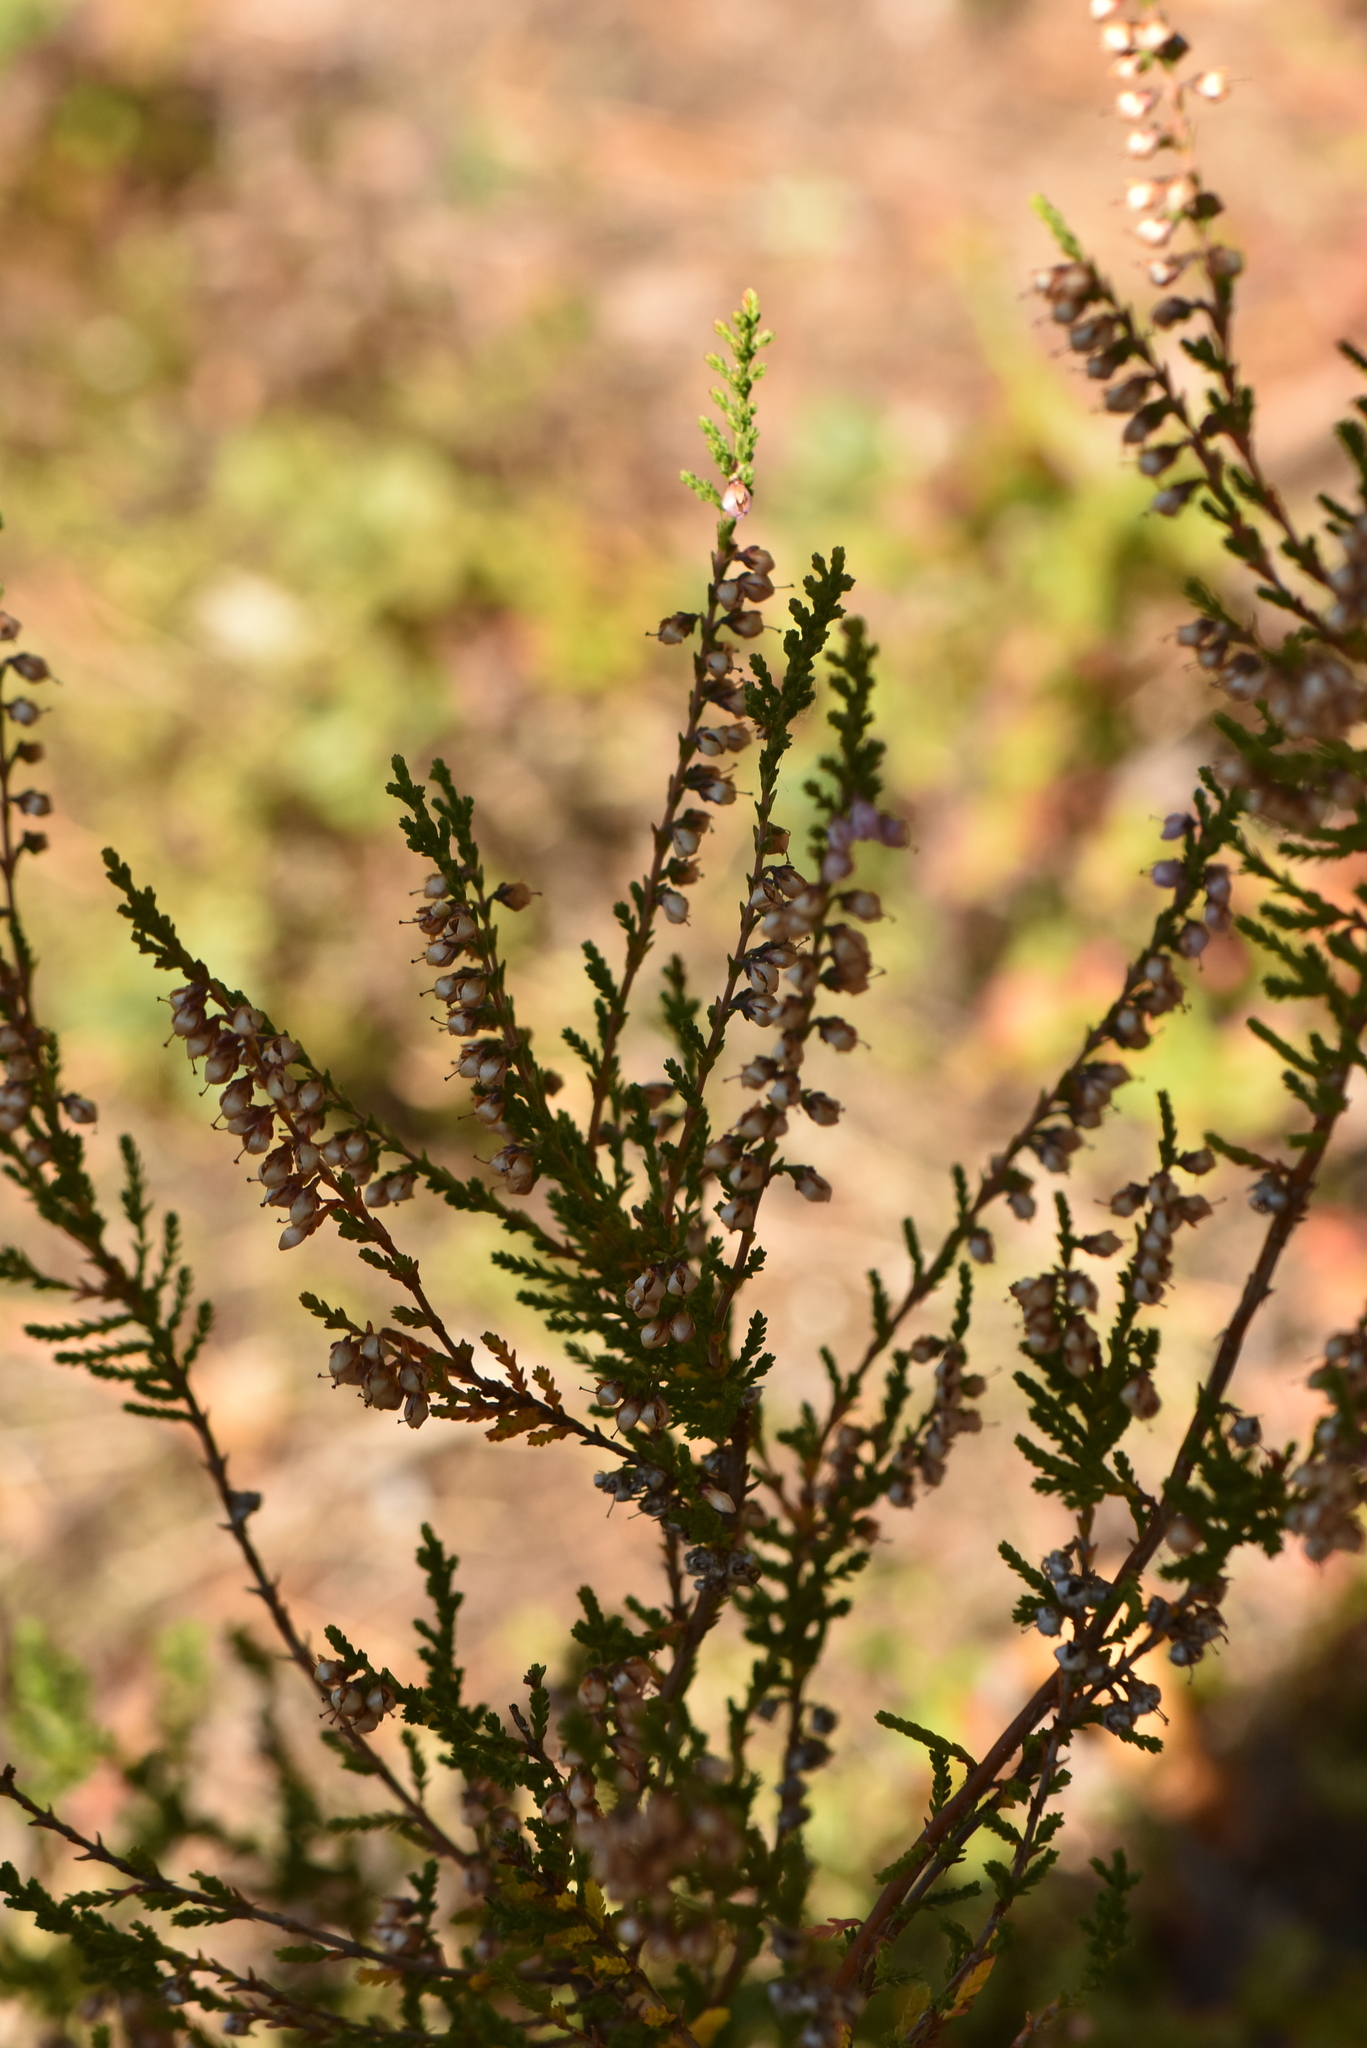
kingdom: Plantae
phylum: Tracheophyta
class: Magnoliopsida
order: Ericales
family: Ericaceae
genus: Calluna
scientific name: Calluna vulgaris
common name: Heather
